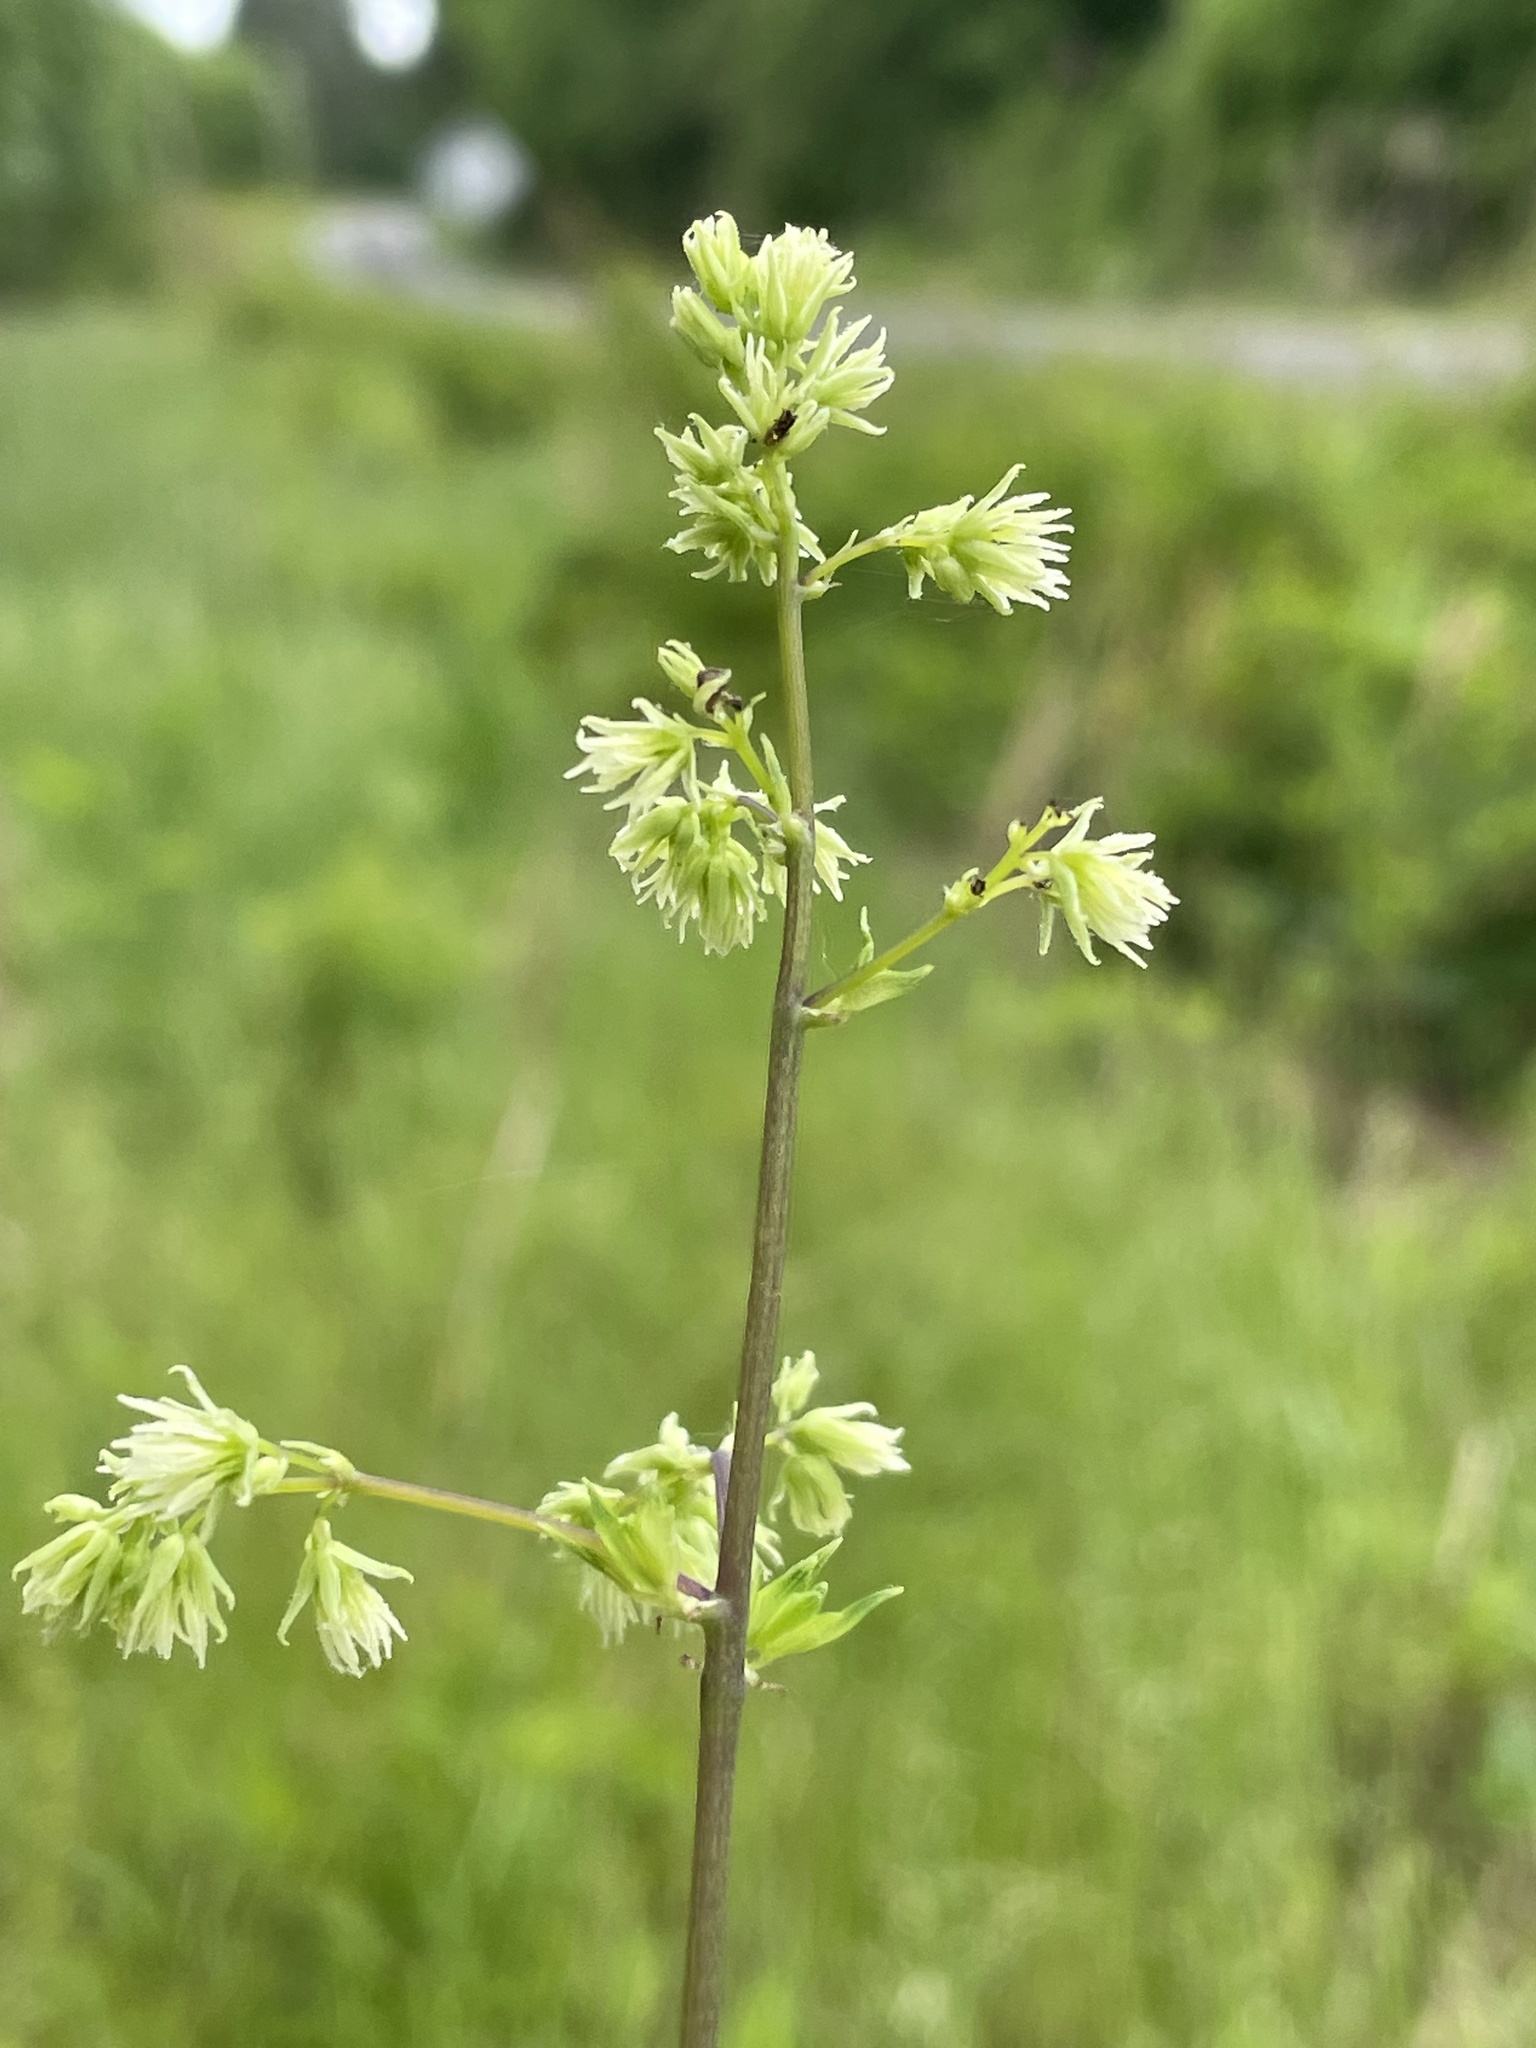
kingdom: Plantae
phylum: Tracheophyta
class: Magnoliopsida
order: Ranunculales
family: Ranunculaceae
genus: Thalictrum
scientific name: Thalictrum revolutum
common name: Waxy meadow-rue
